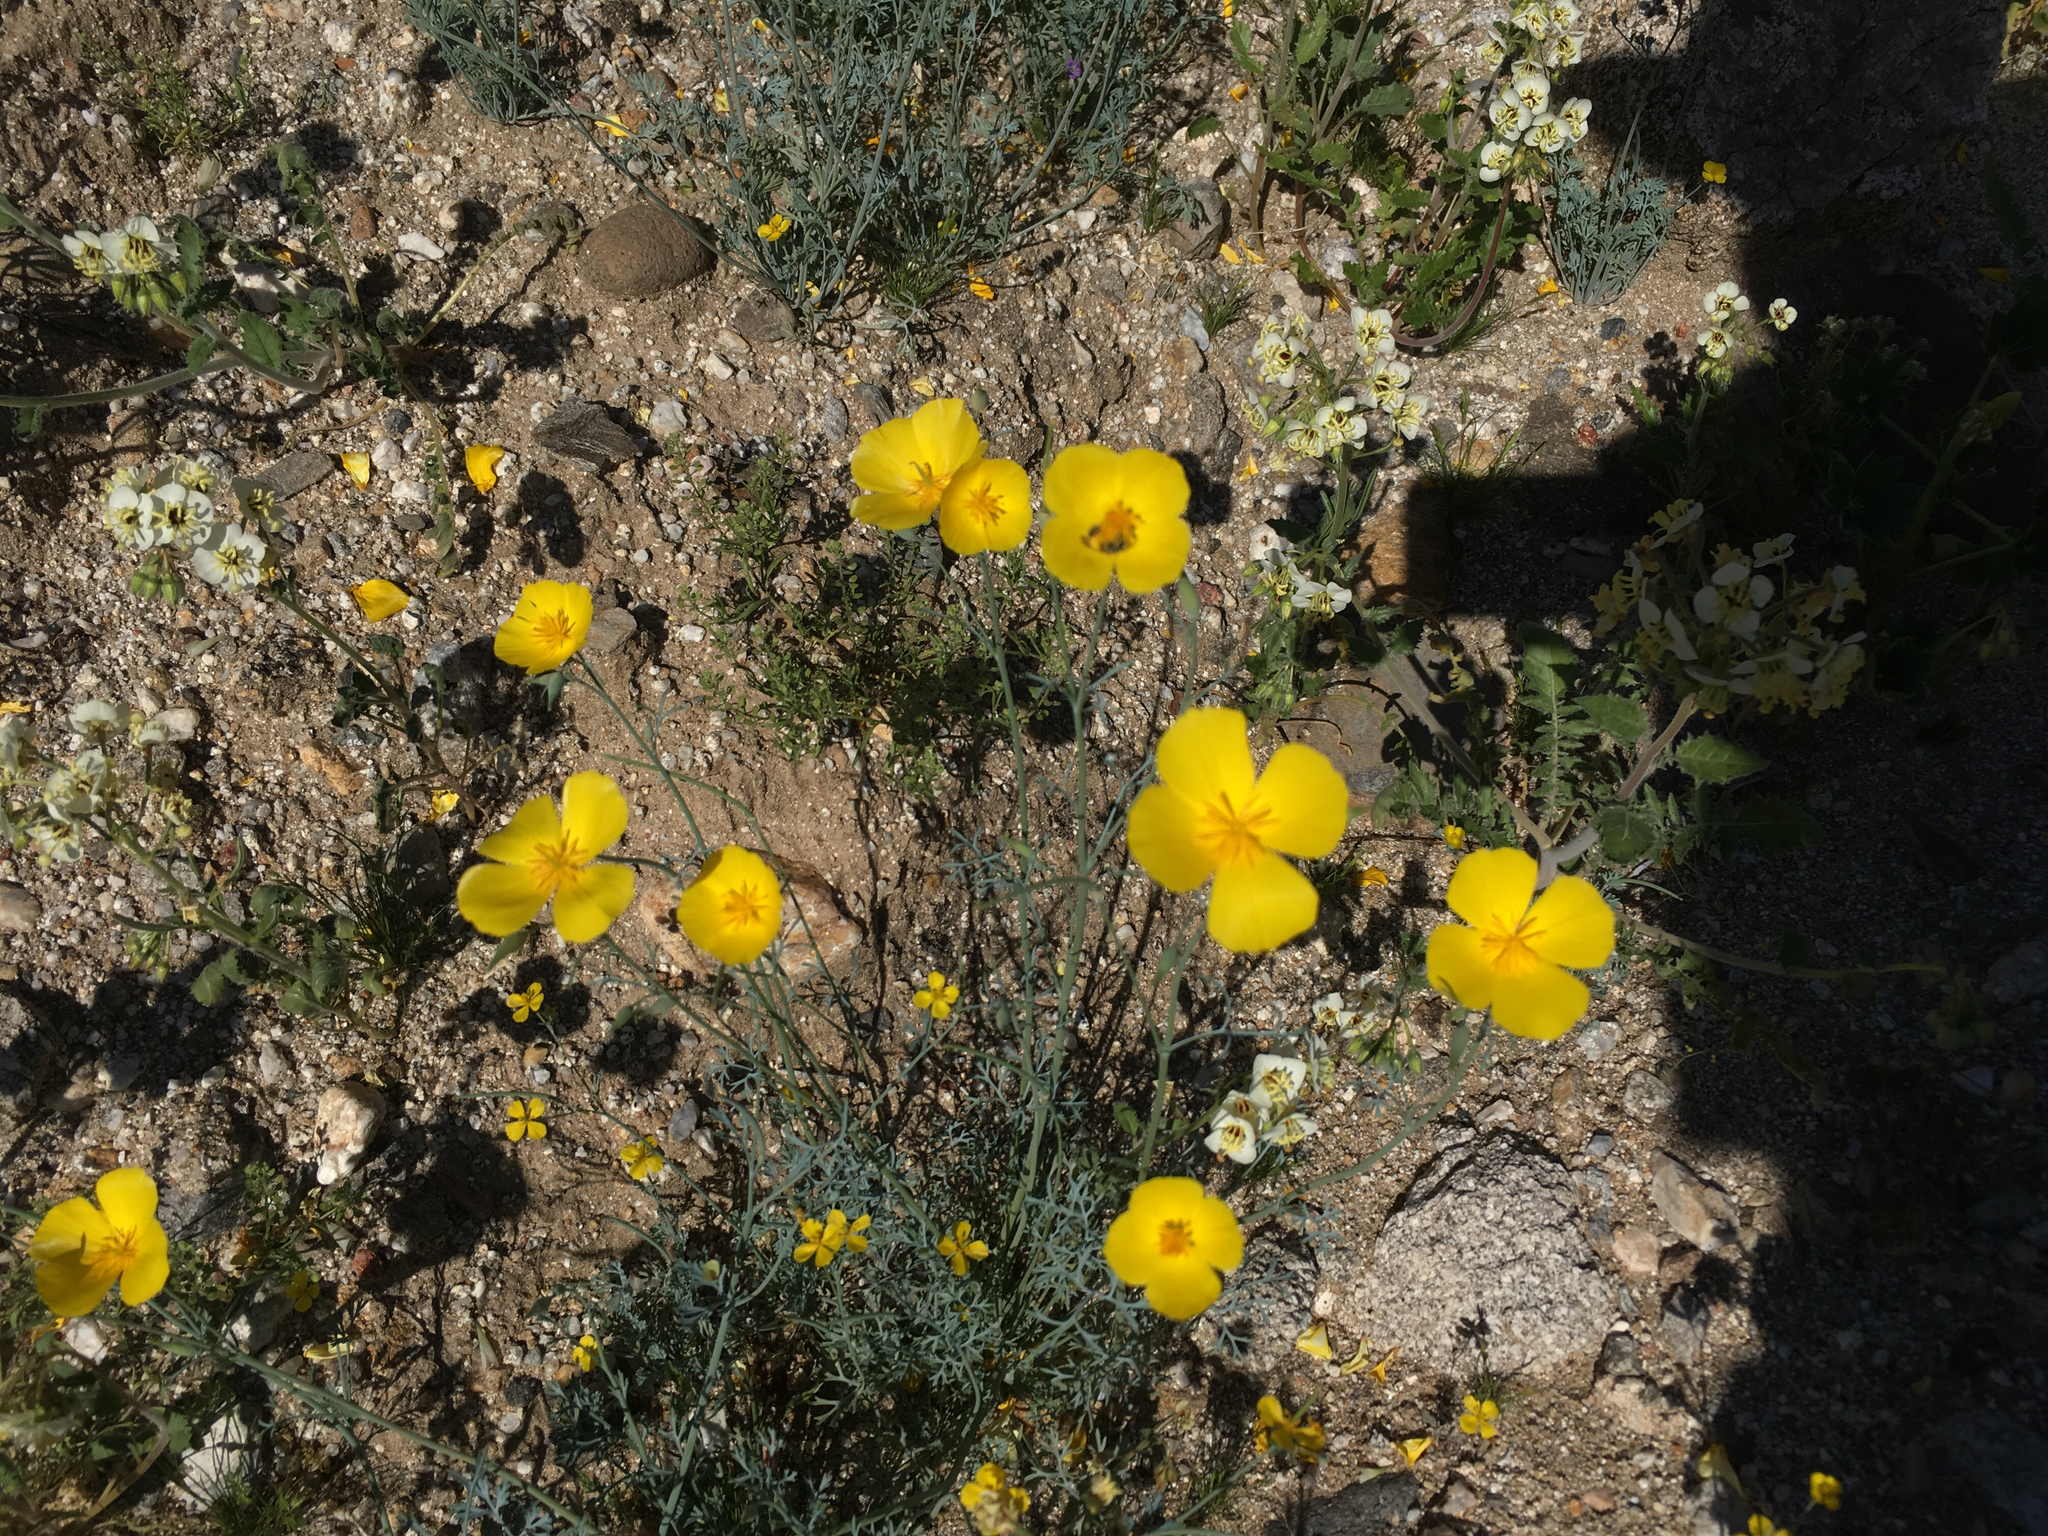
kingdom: Plantae
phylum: Tracheophyta
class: Magnoliopsida
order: Ranunculales
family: Papaveraceae
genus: Eschscholzia
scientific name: Eschscholzia parishii
